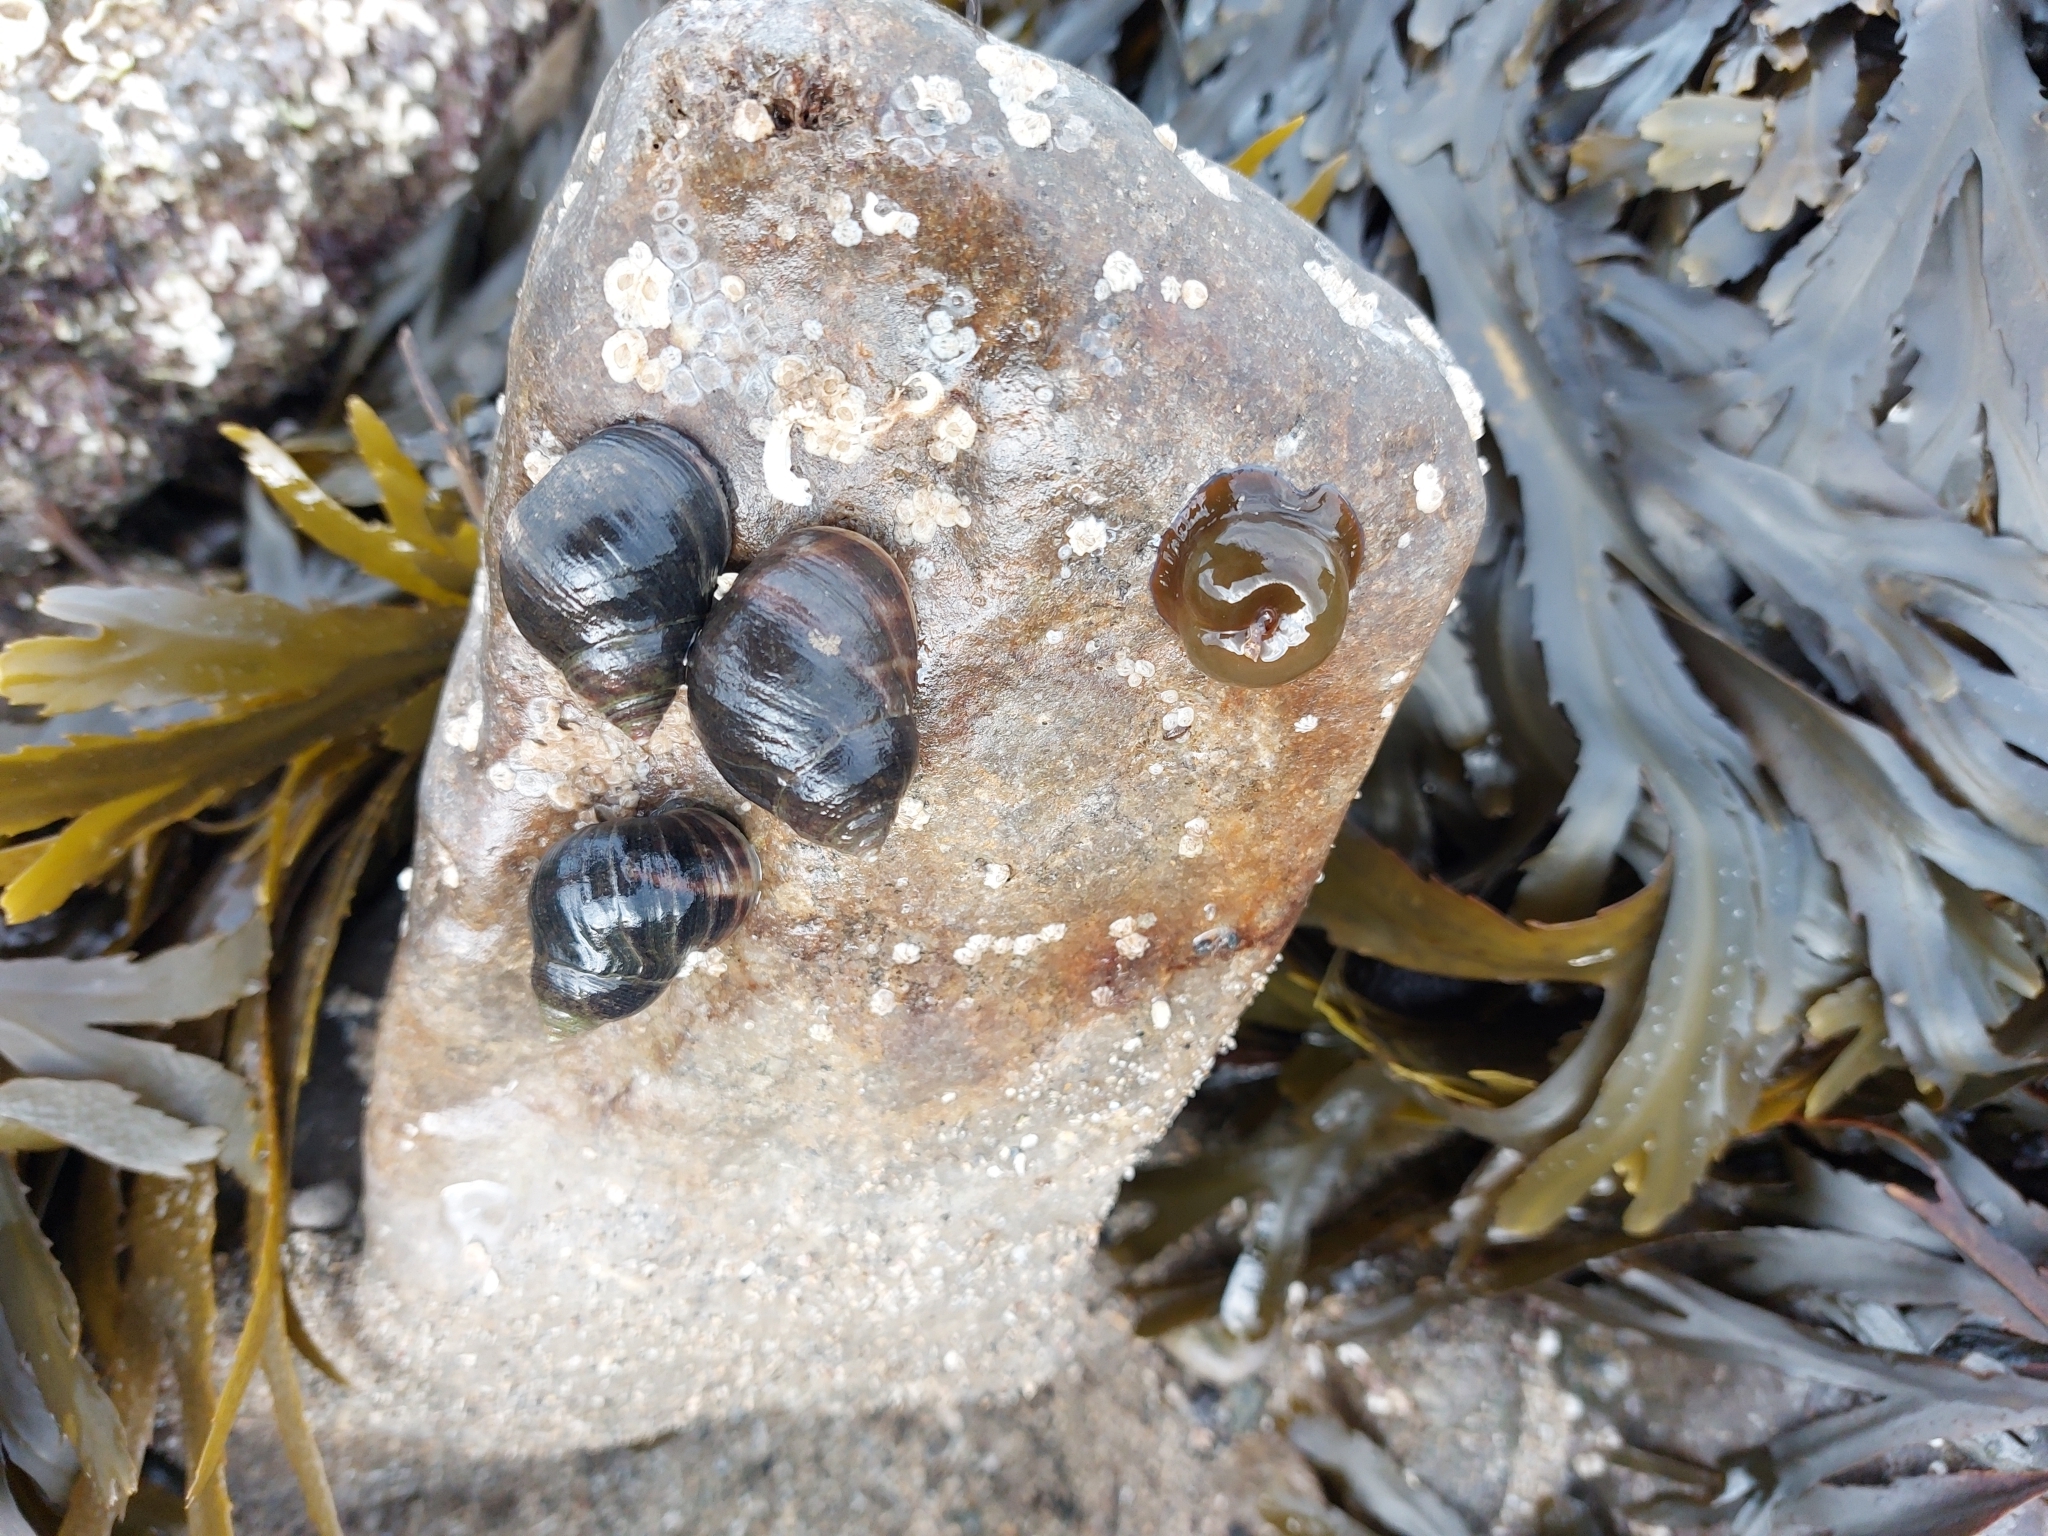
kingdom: Animalia
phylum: Cnidaria
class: Anthozoa
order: Actiniaria
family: Actiniidae
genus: Actinia
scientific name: Actinia equina
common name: Beadlet anemone
